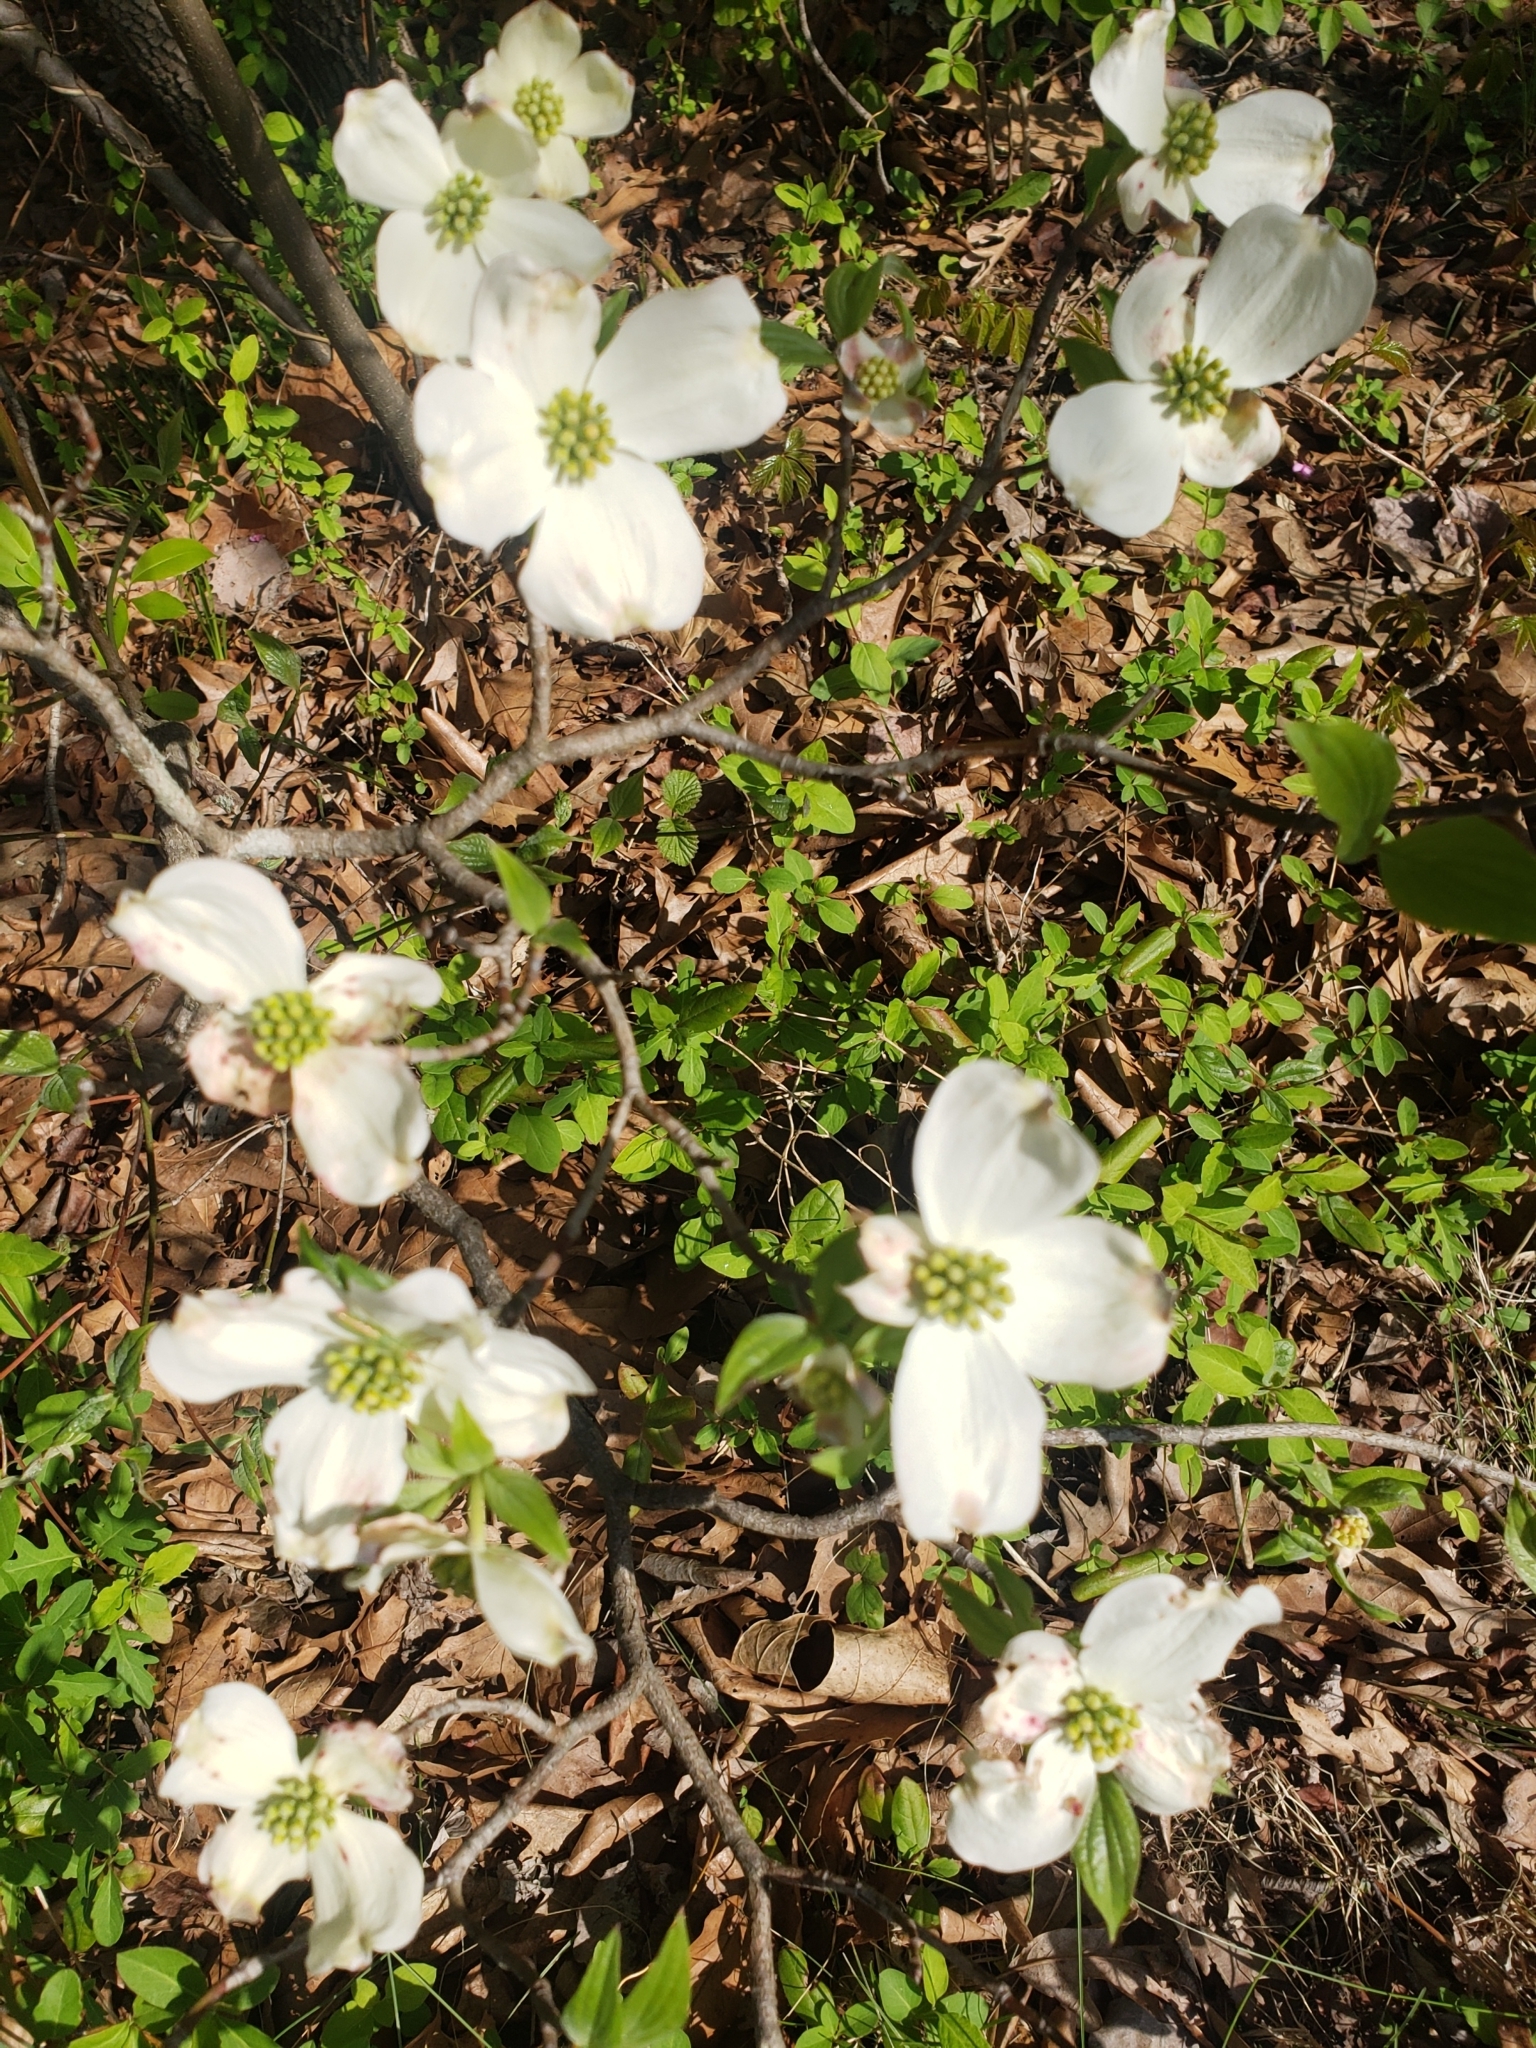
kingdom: Plantae
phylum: Tracheophyta
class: Magnoliopsida
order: Cornales
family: Cornaceae
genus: Cornus
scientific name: Cornus florida
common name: Flowering dogwood
